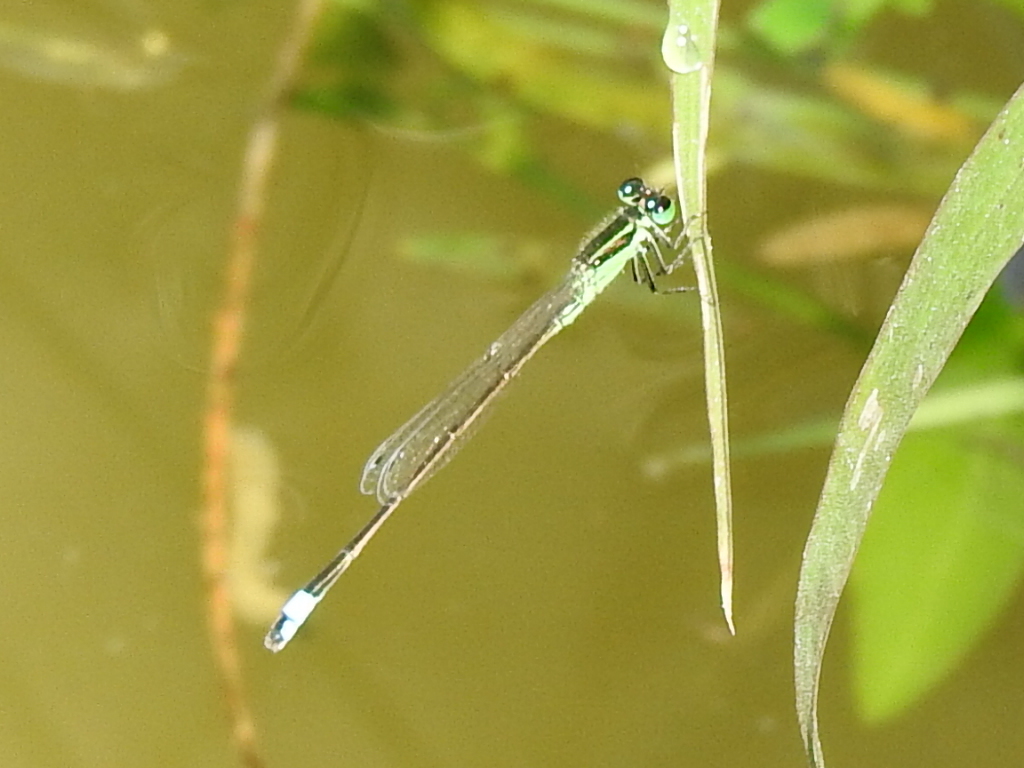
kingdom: Animalia
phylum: Arthropoda
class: Insecta
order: Odonata
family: Coenagrionidae
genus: Ischnura
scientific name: Ischnura ramburii
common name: Rambur's forktail
